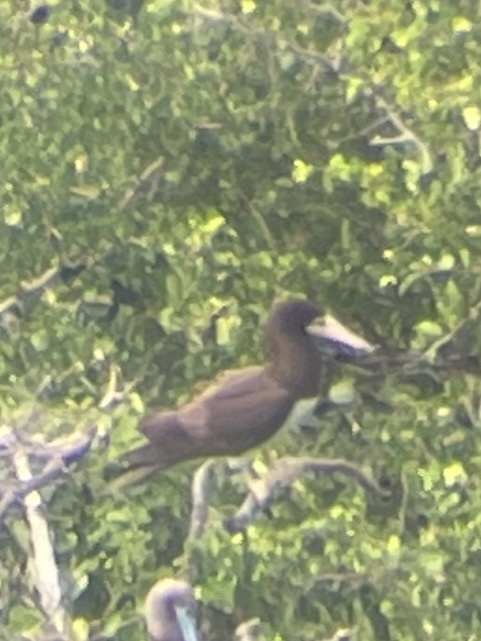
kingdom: Animalia
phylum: Chordata
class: Aves
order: Suliformes
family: Sulidae
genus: Sula
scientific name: Sula leucogaster
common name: Brown booby
